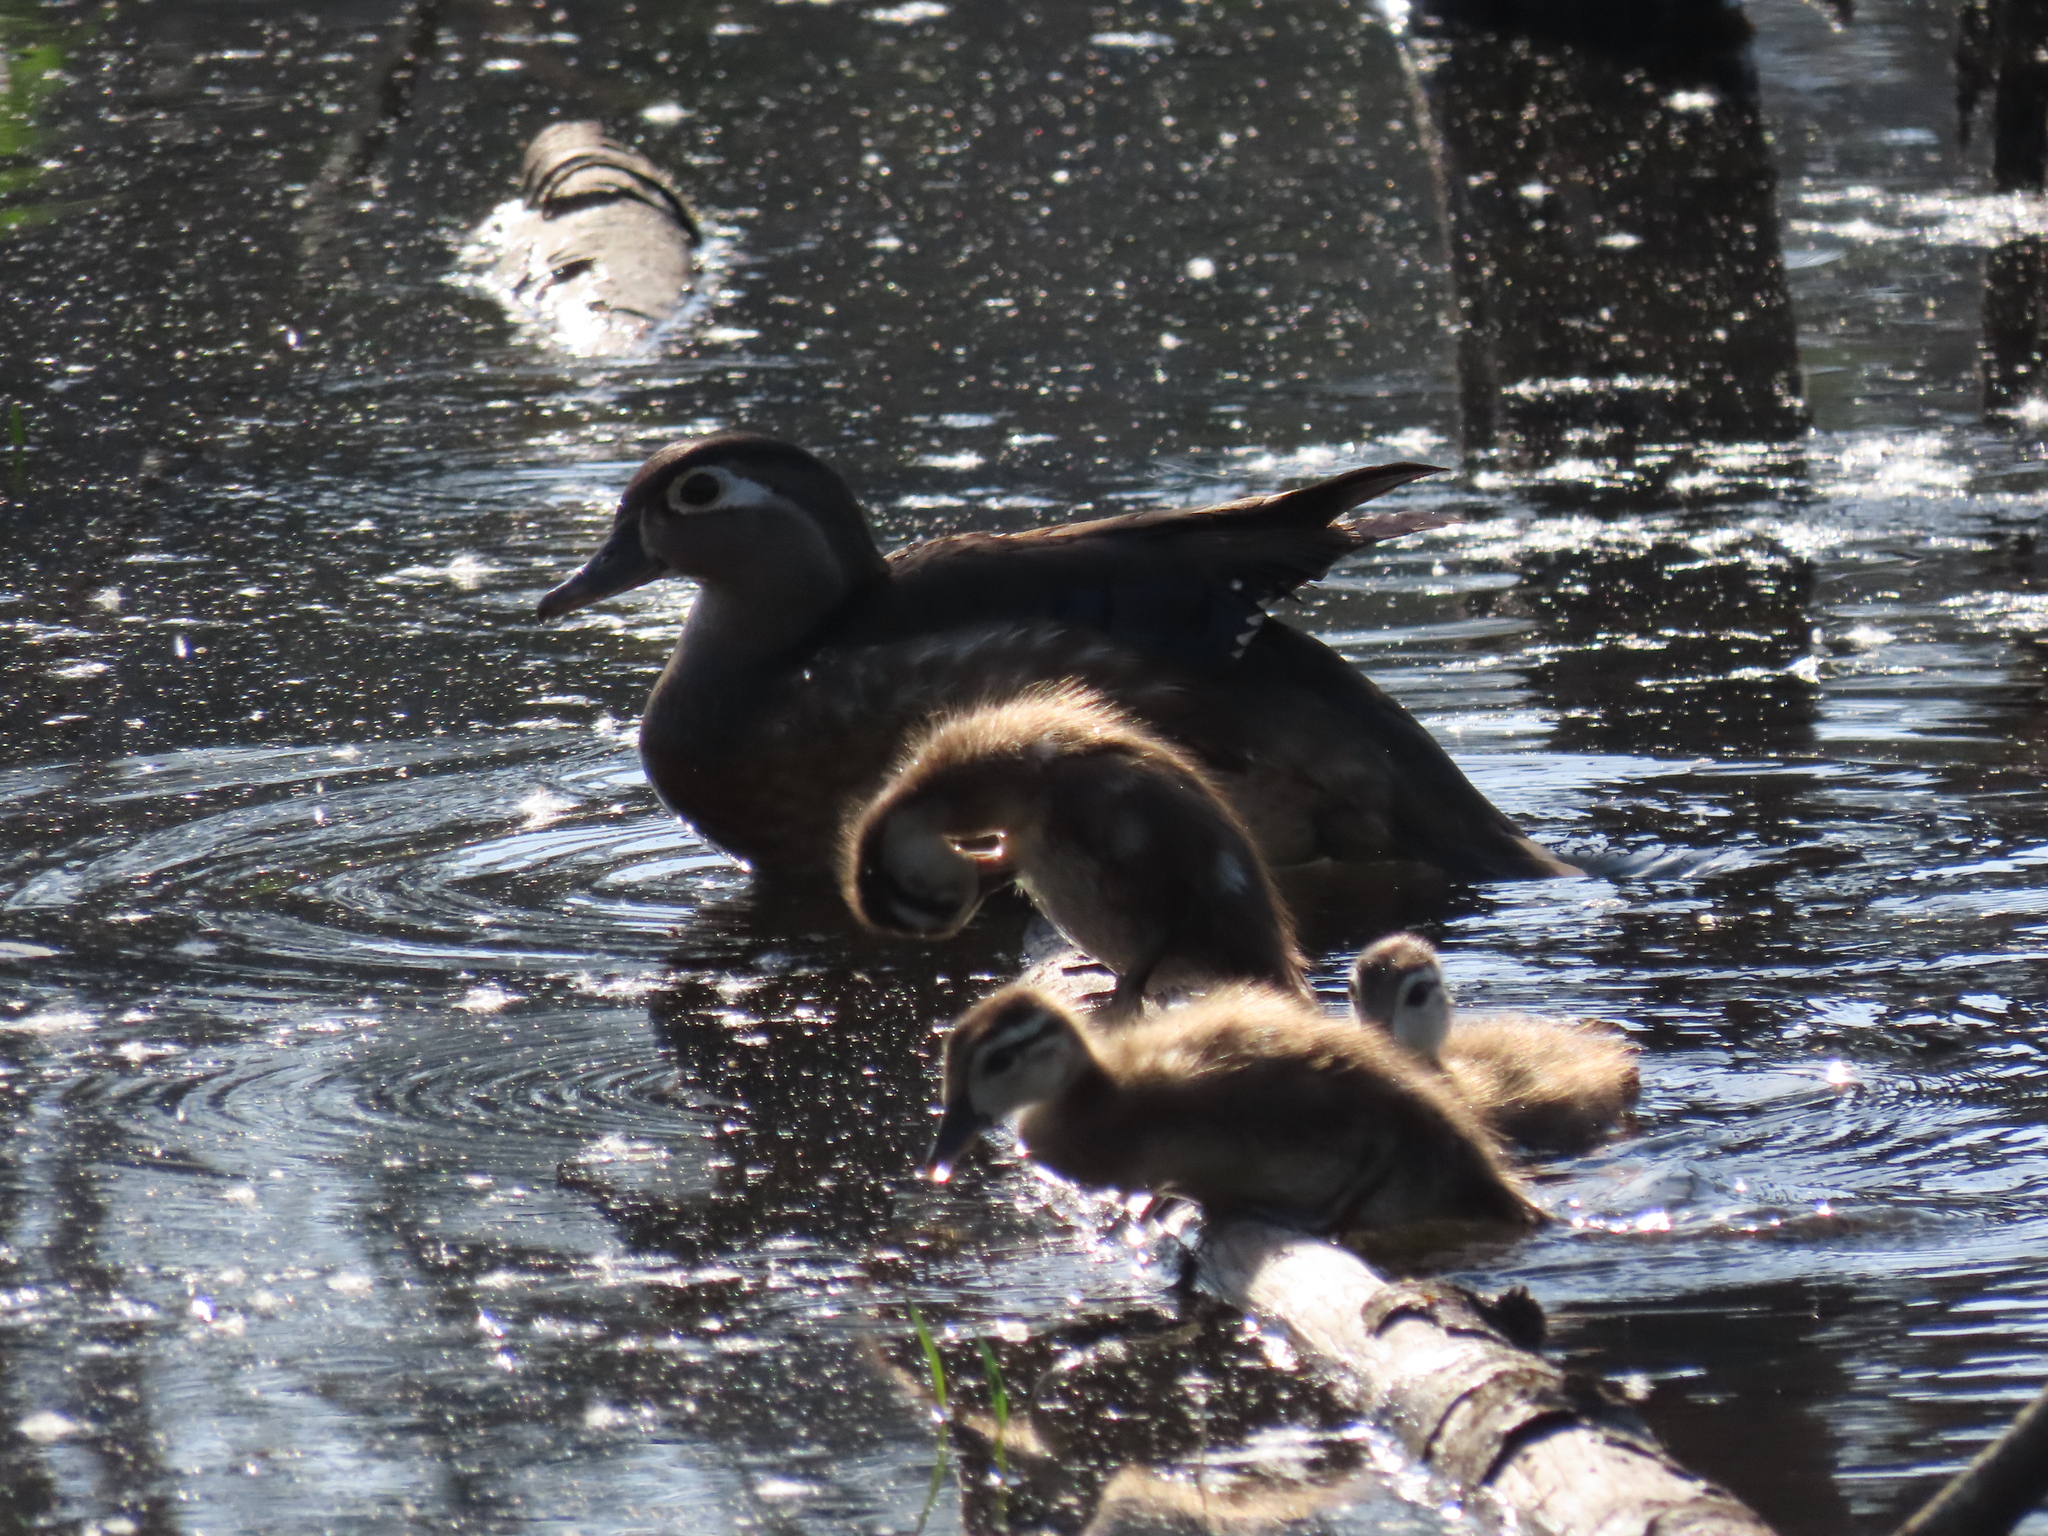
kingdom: Animalia
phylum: Chordata
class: Aves
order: Anseriformes
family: Anatidae
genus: Aix
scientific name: Aix sponsa
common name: Wood duck
